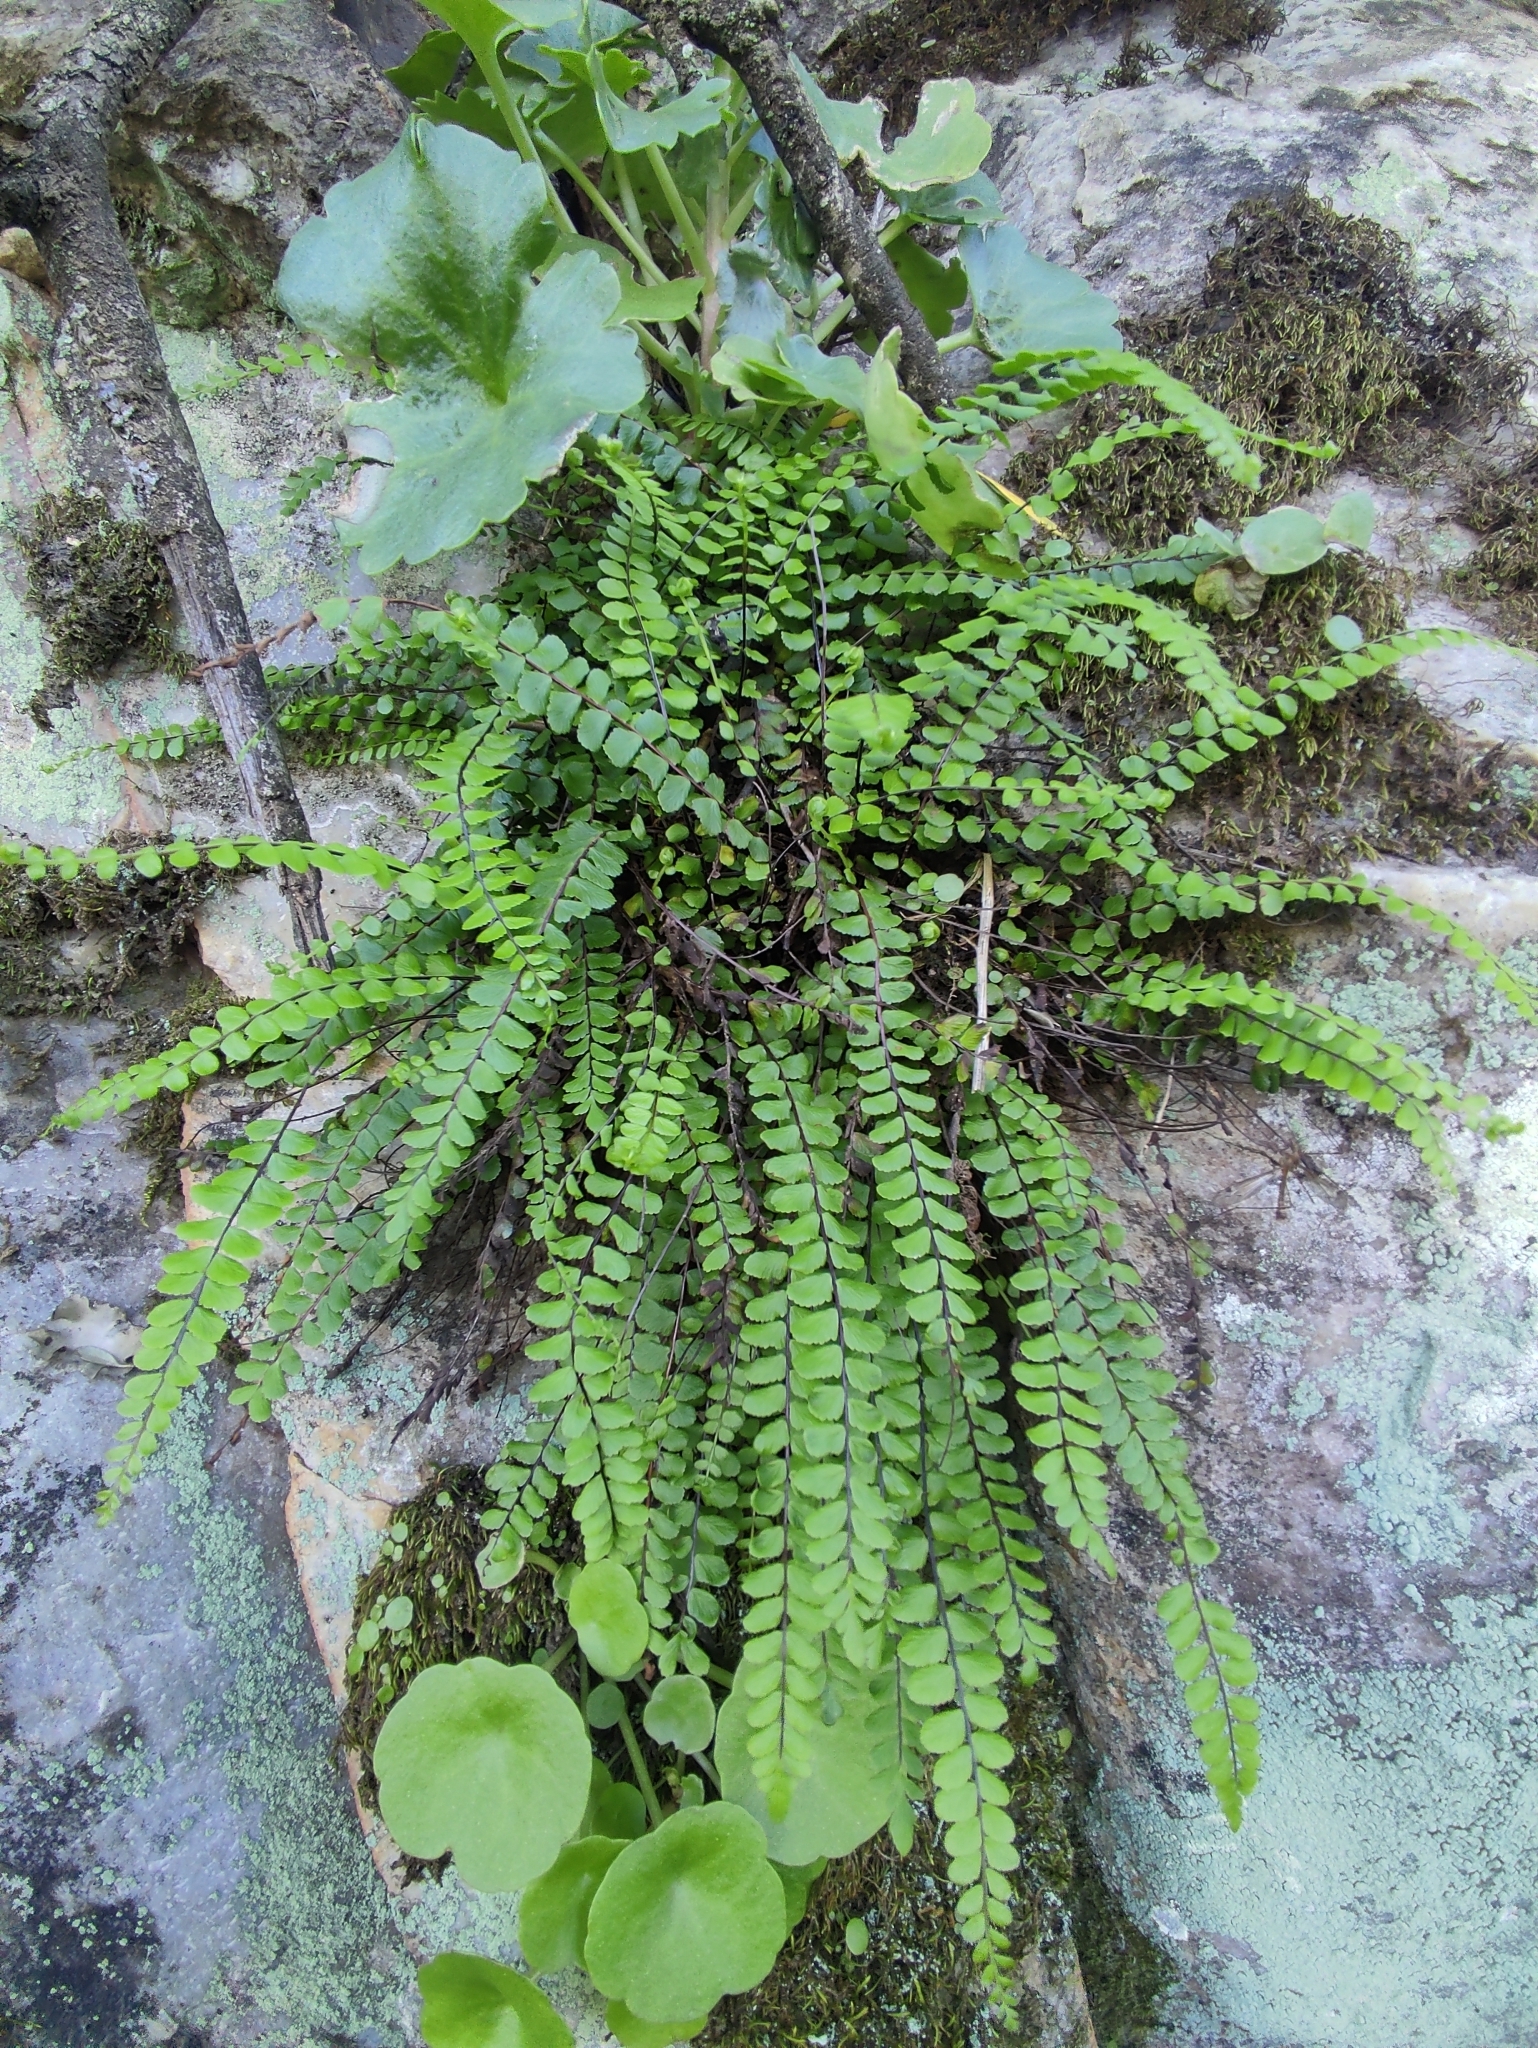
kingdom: Plantae
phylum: Tracheophyta
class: Polypodiopsida
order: Polypodiales
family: Aspleniaceae
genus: Asplenium
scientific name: Asplenium trichomanes
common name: Maidenhair spleenwort
